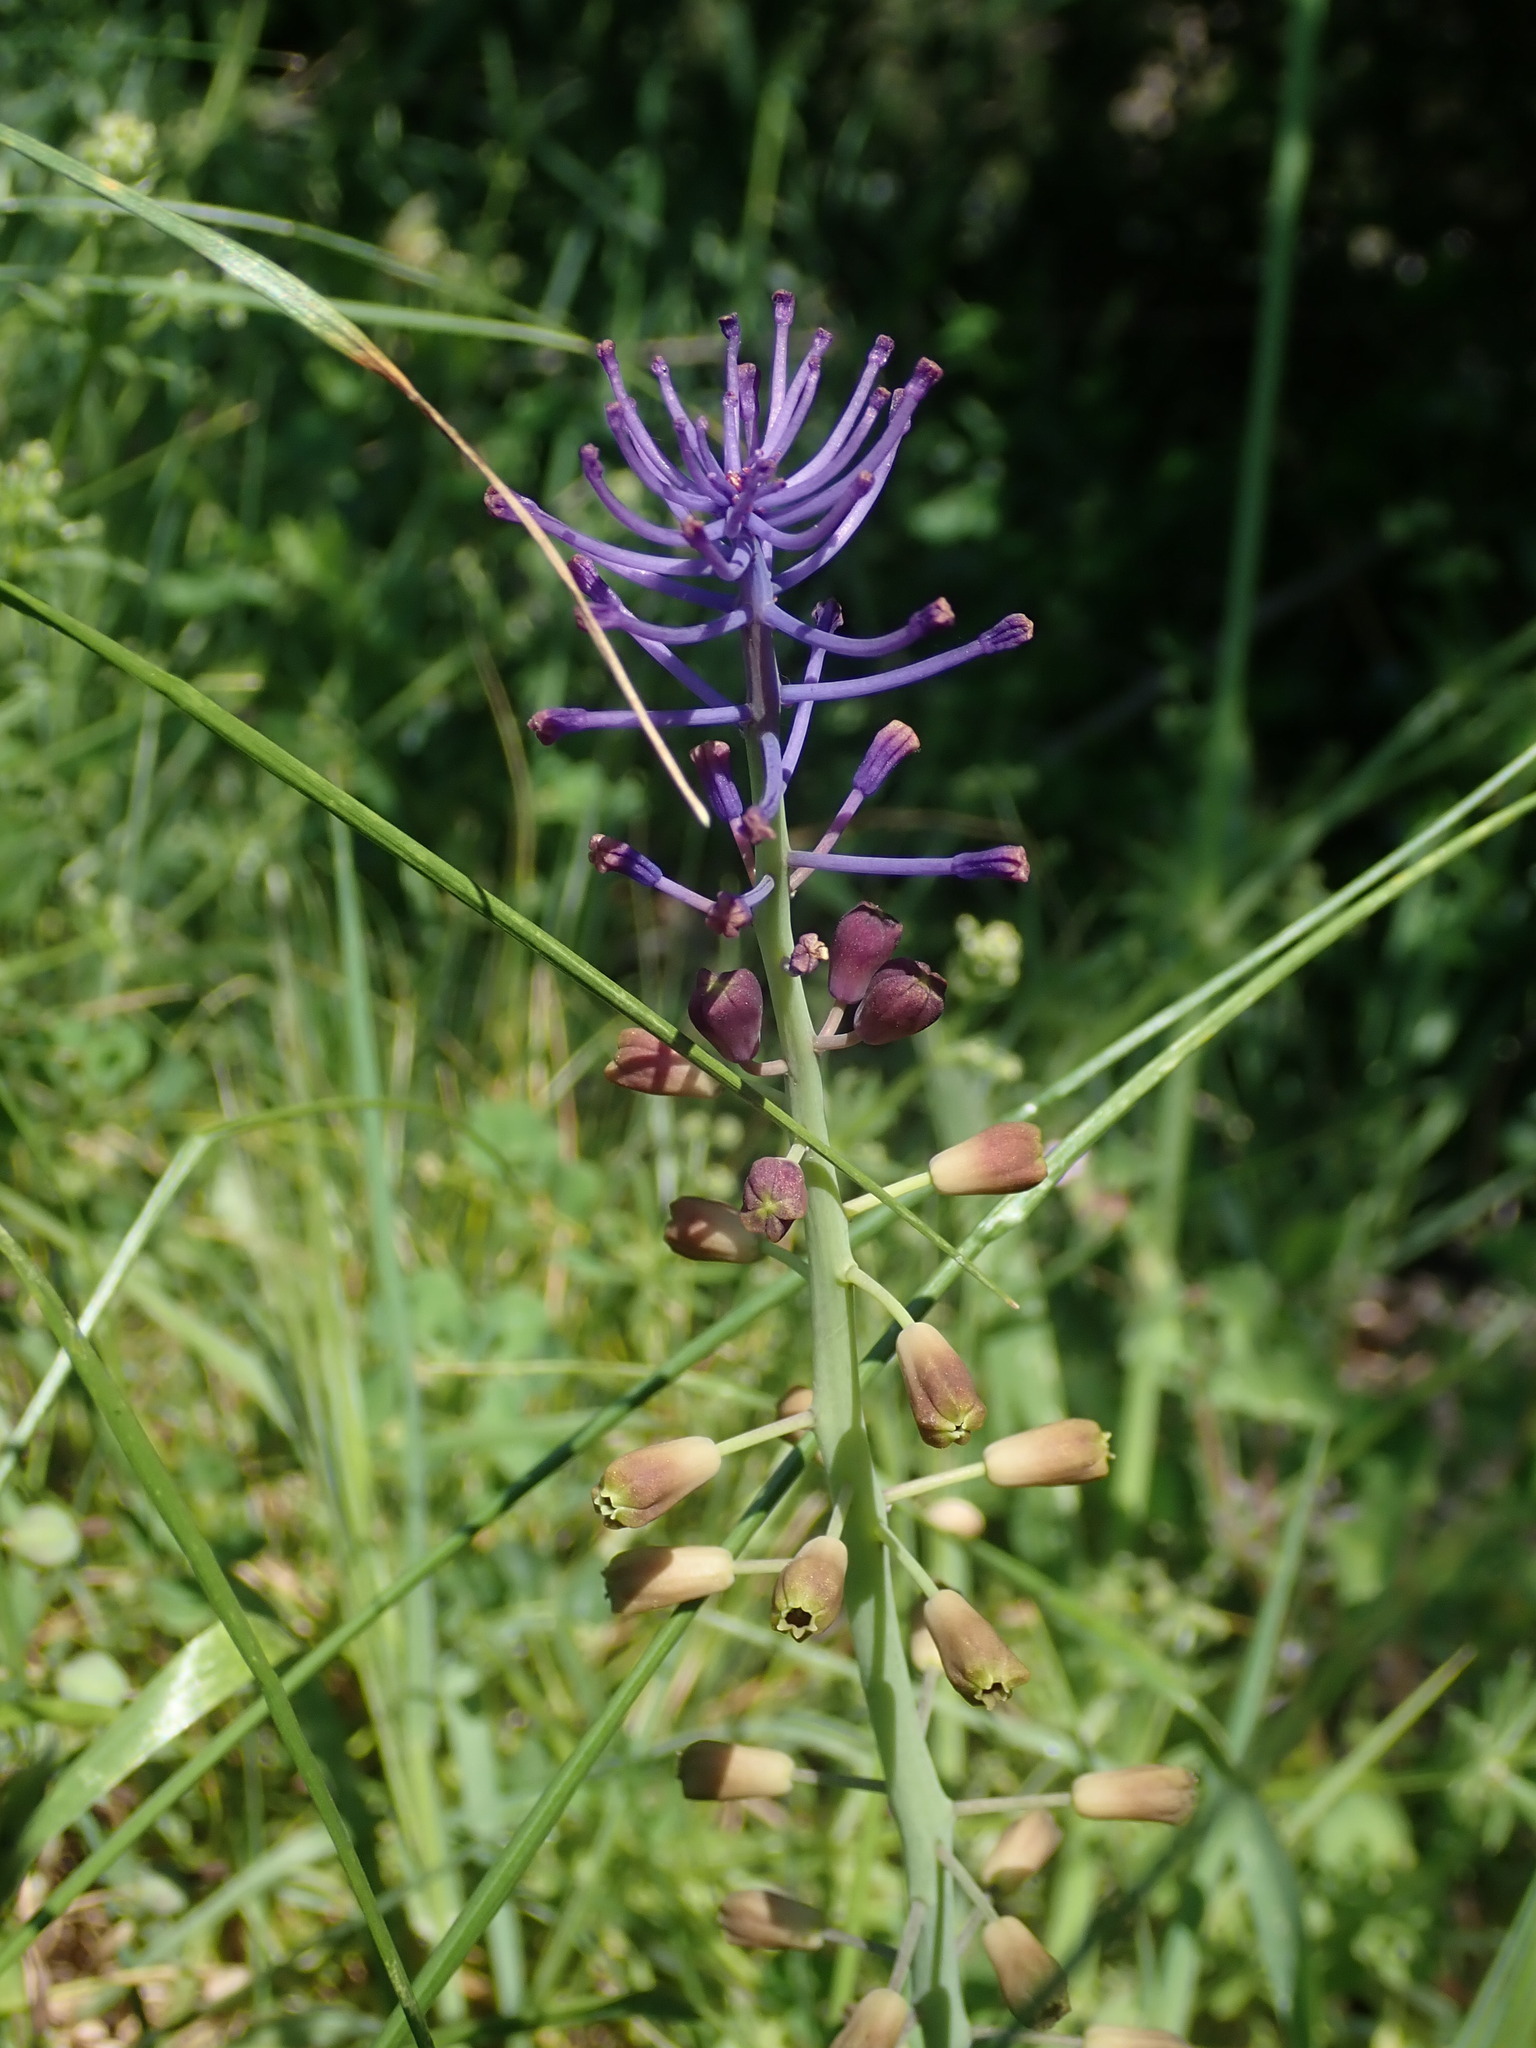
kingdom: Plantae
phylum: Tracheophyta
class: Liliopsida
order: Asparagales
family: Asparagaceae
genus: Muscari
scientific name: Muscari comosum
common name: Tassel hyacinth
